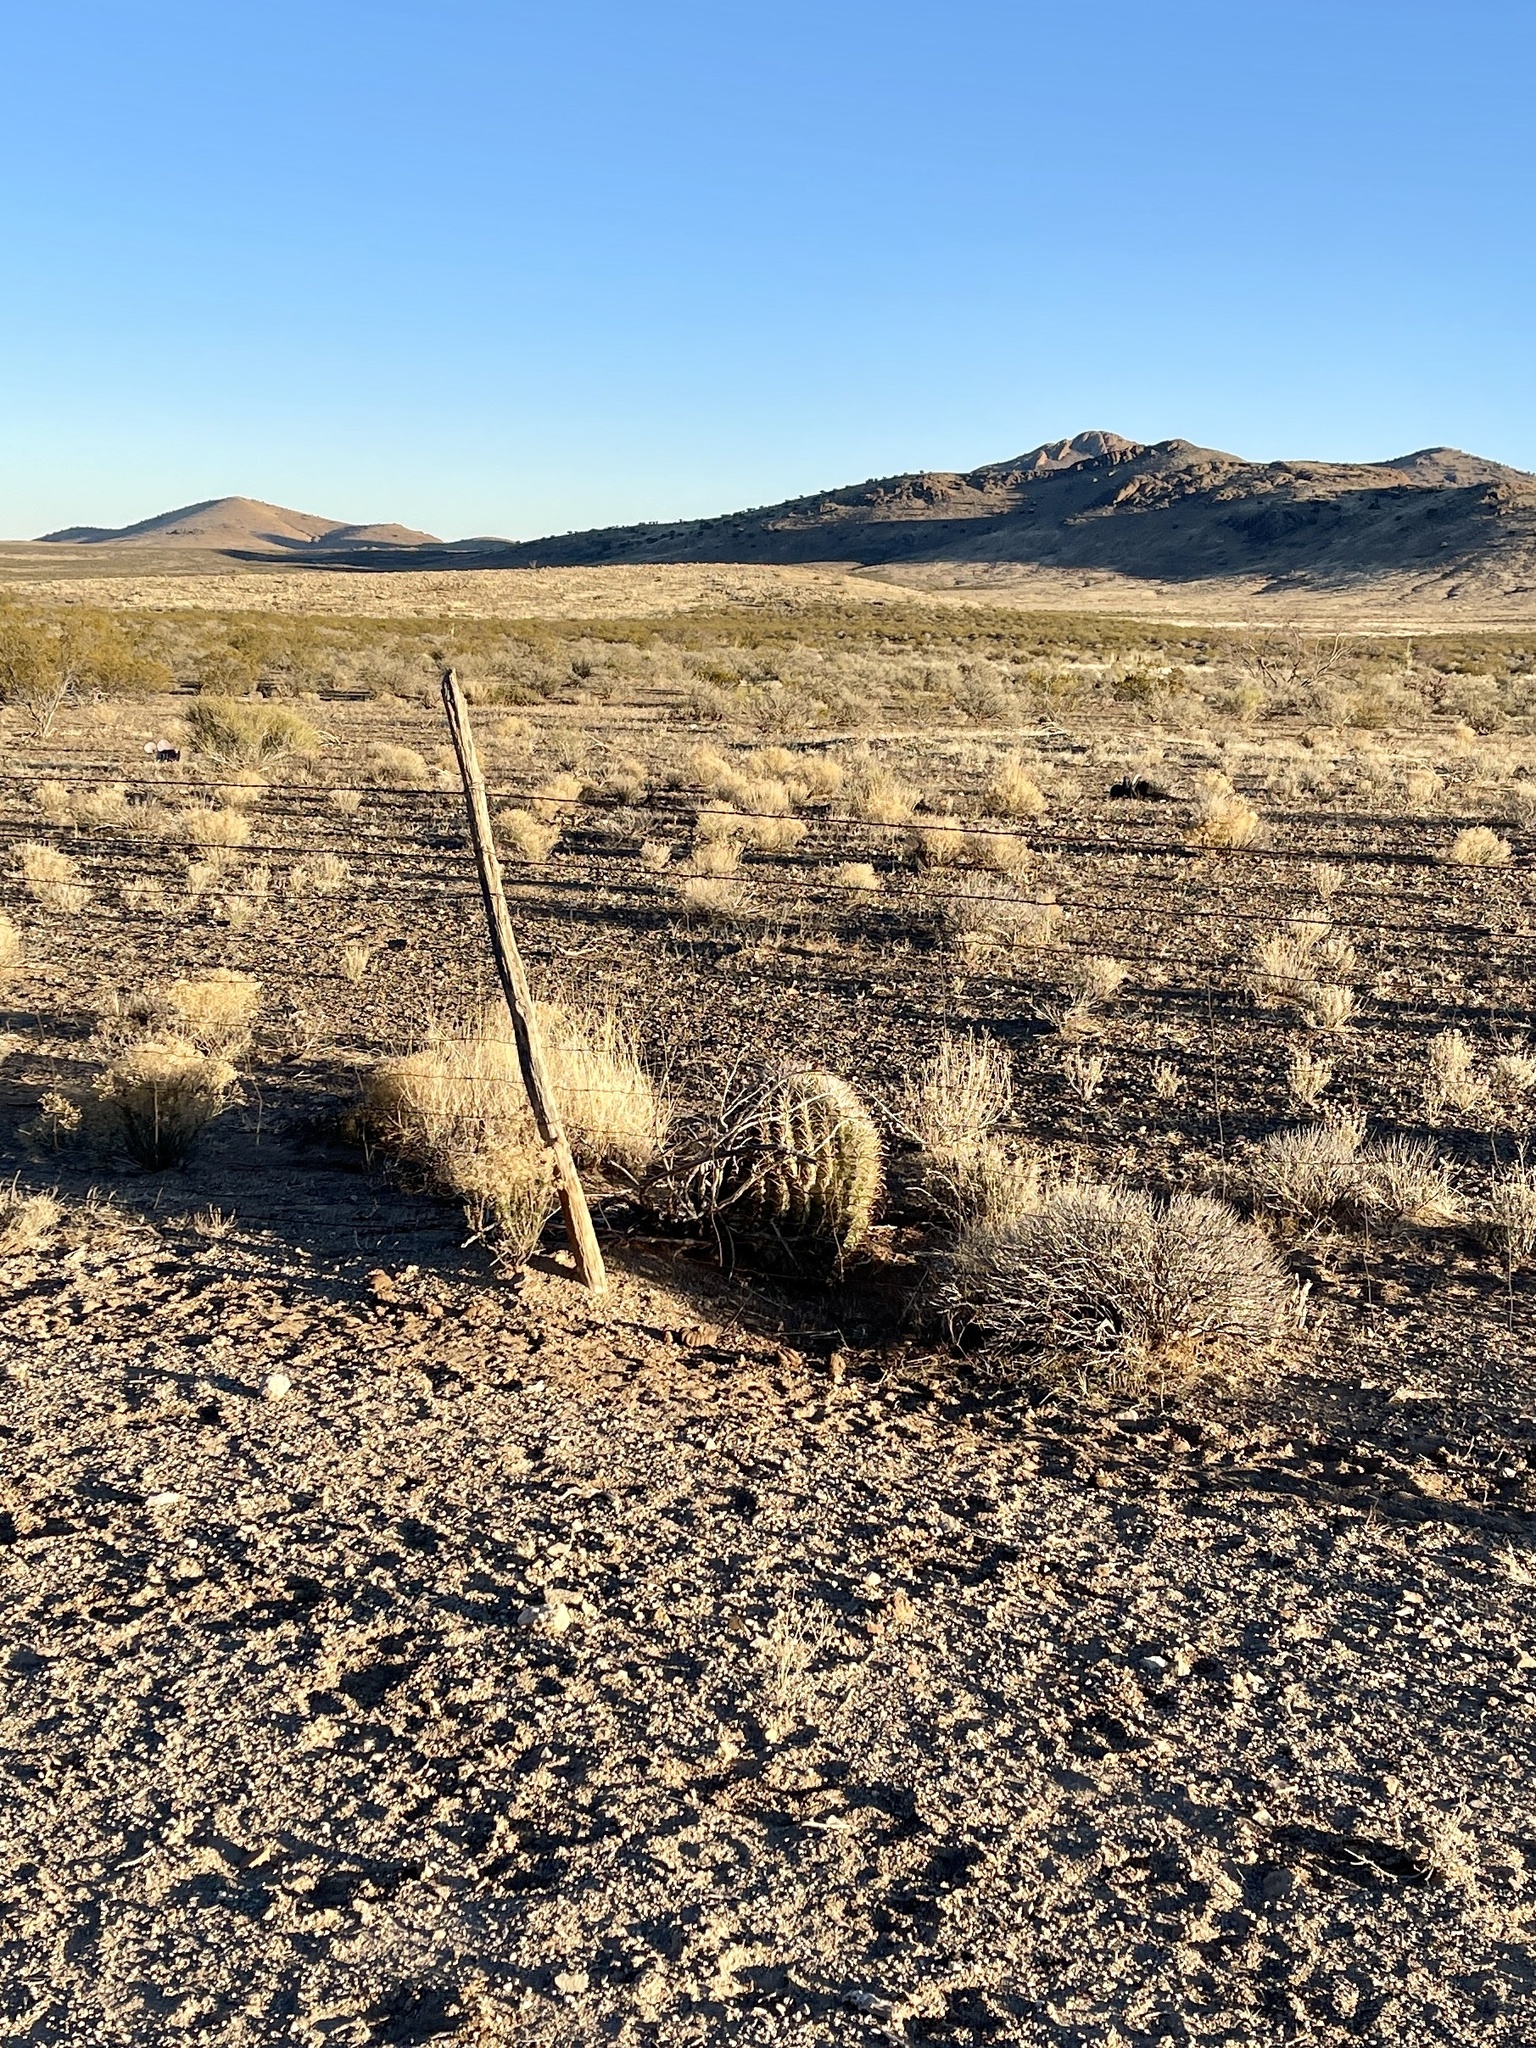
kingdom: Plantae
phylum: Tracheophyta
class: Magnoliopsida
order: Caryophyllales
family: Cactaceae
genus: Ferocactus
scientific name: Ferocactus wislizeni
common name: Candy barrel cactus
